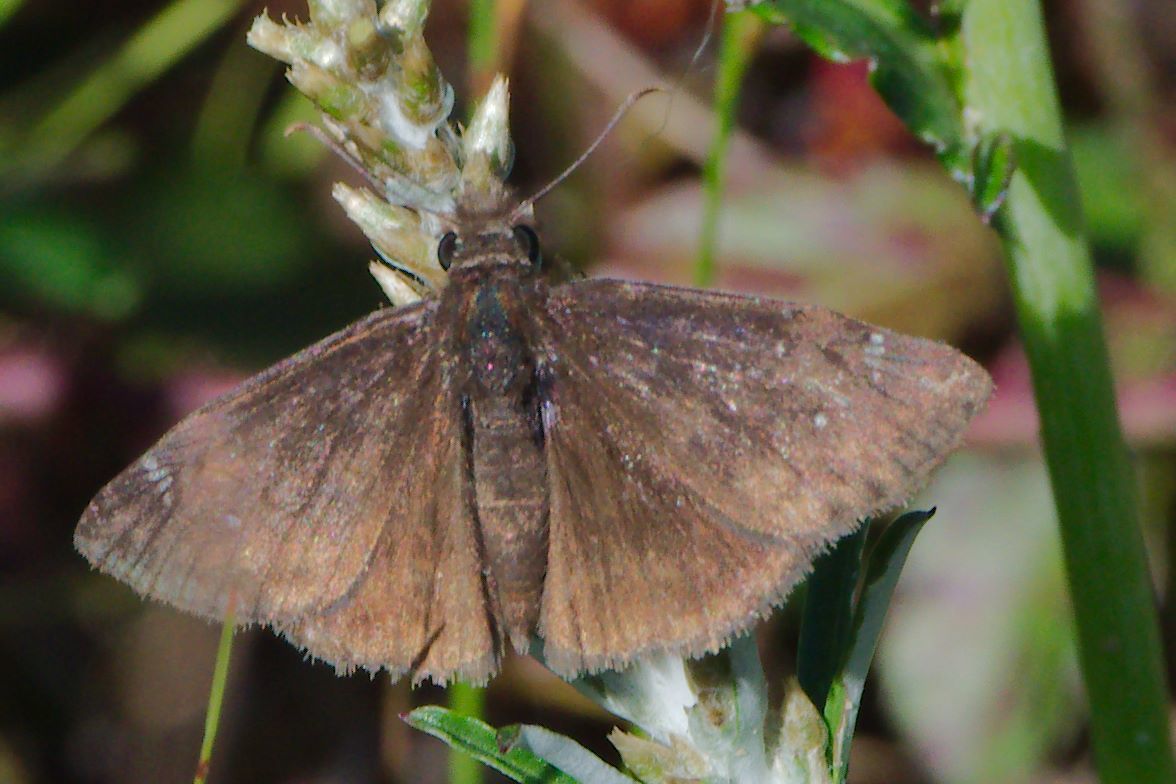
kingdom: Animalia
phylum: Arthropoda
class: Insecta
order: Lepidoptera
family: Hesperiidae
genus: Erynnis
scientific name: Erynnis zarucco
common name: Zarucco duskywing
